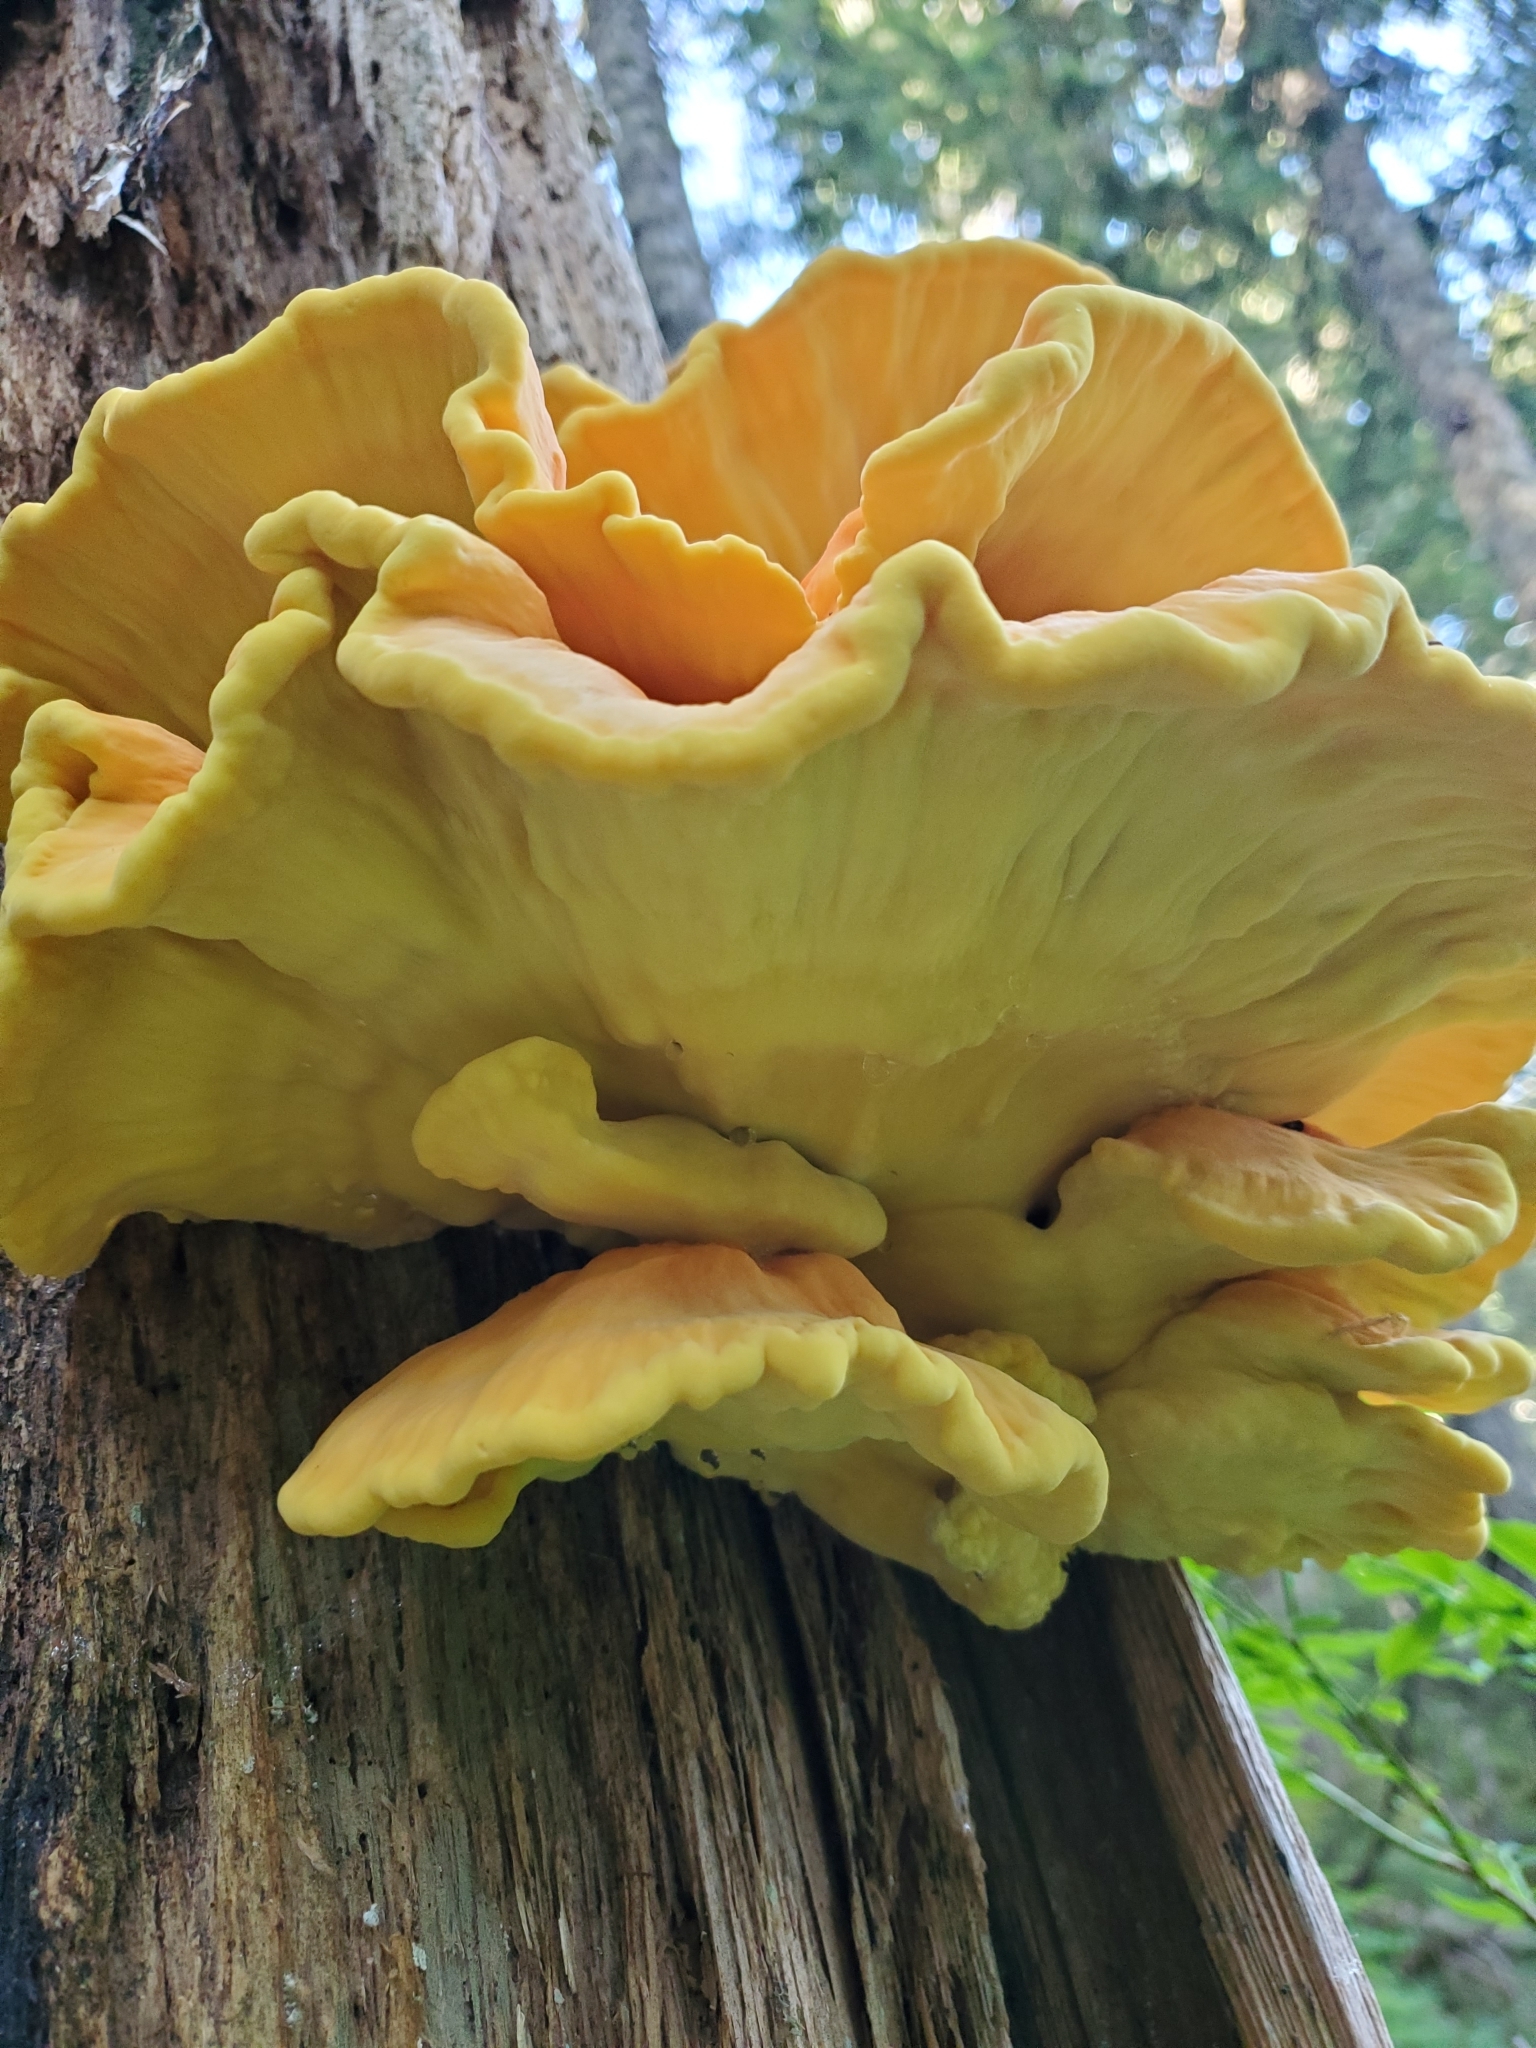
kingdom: Fungi
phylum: Basidiomycota
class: Agaricomycetes
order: Polyporales
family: Laetiporaceae
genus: Laetiporus
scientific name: Laetiporus conifericola
